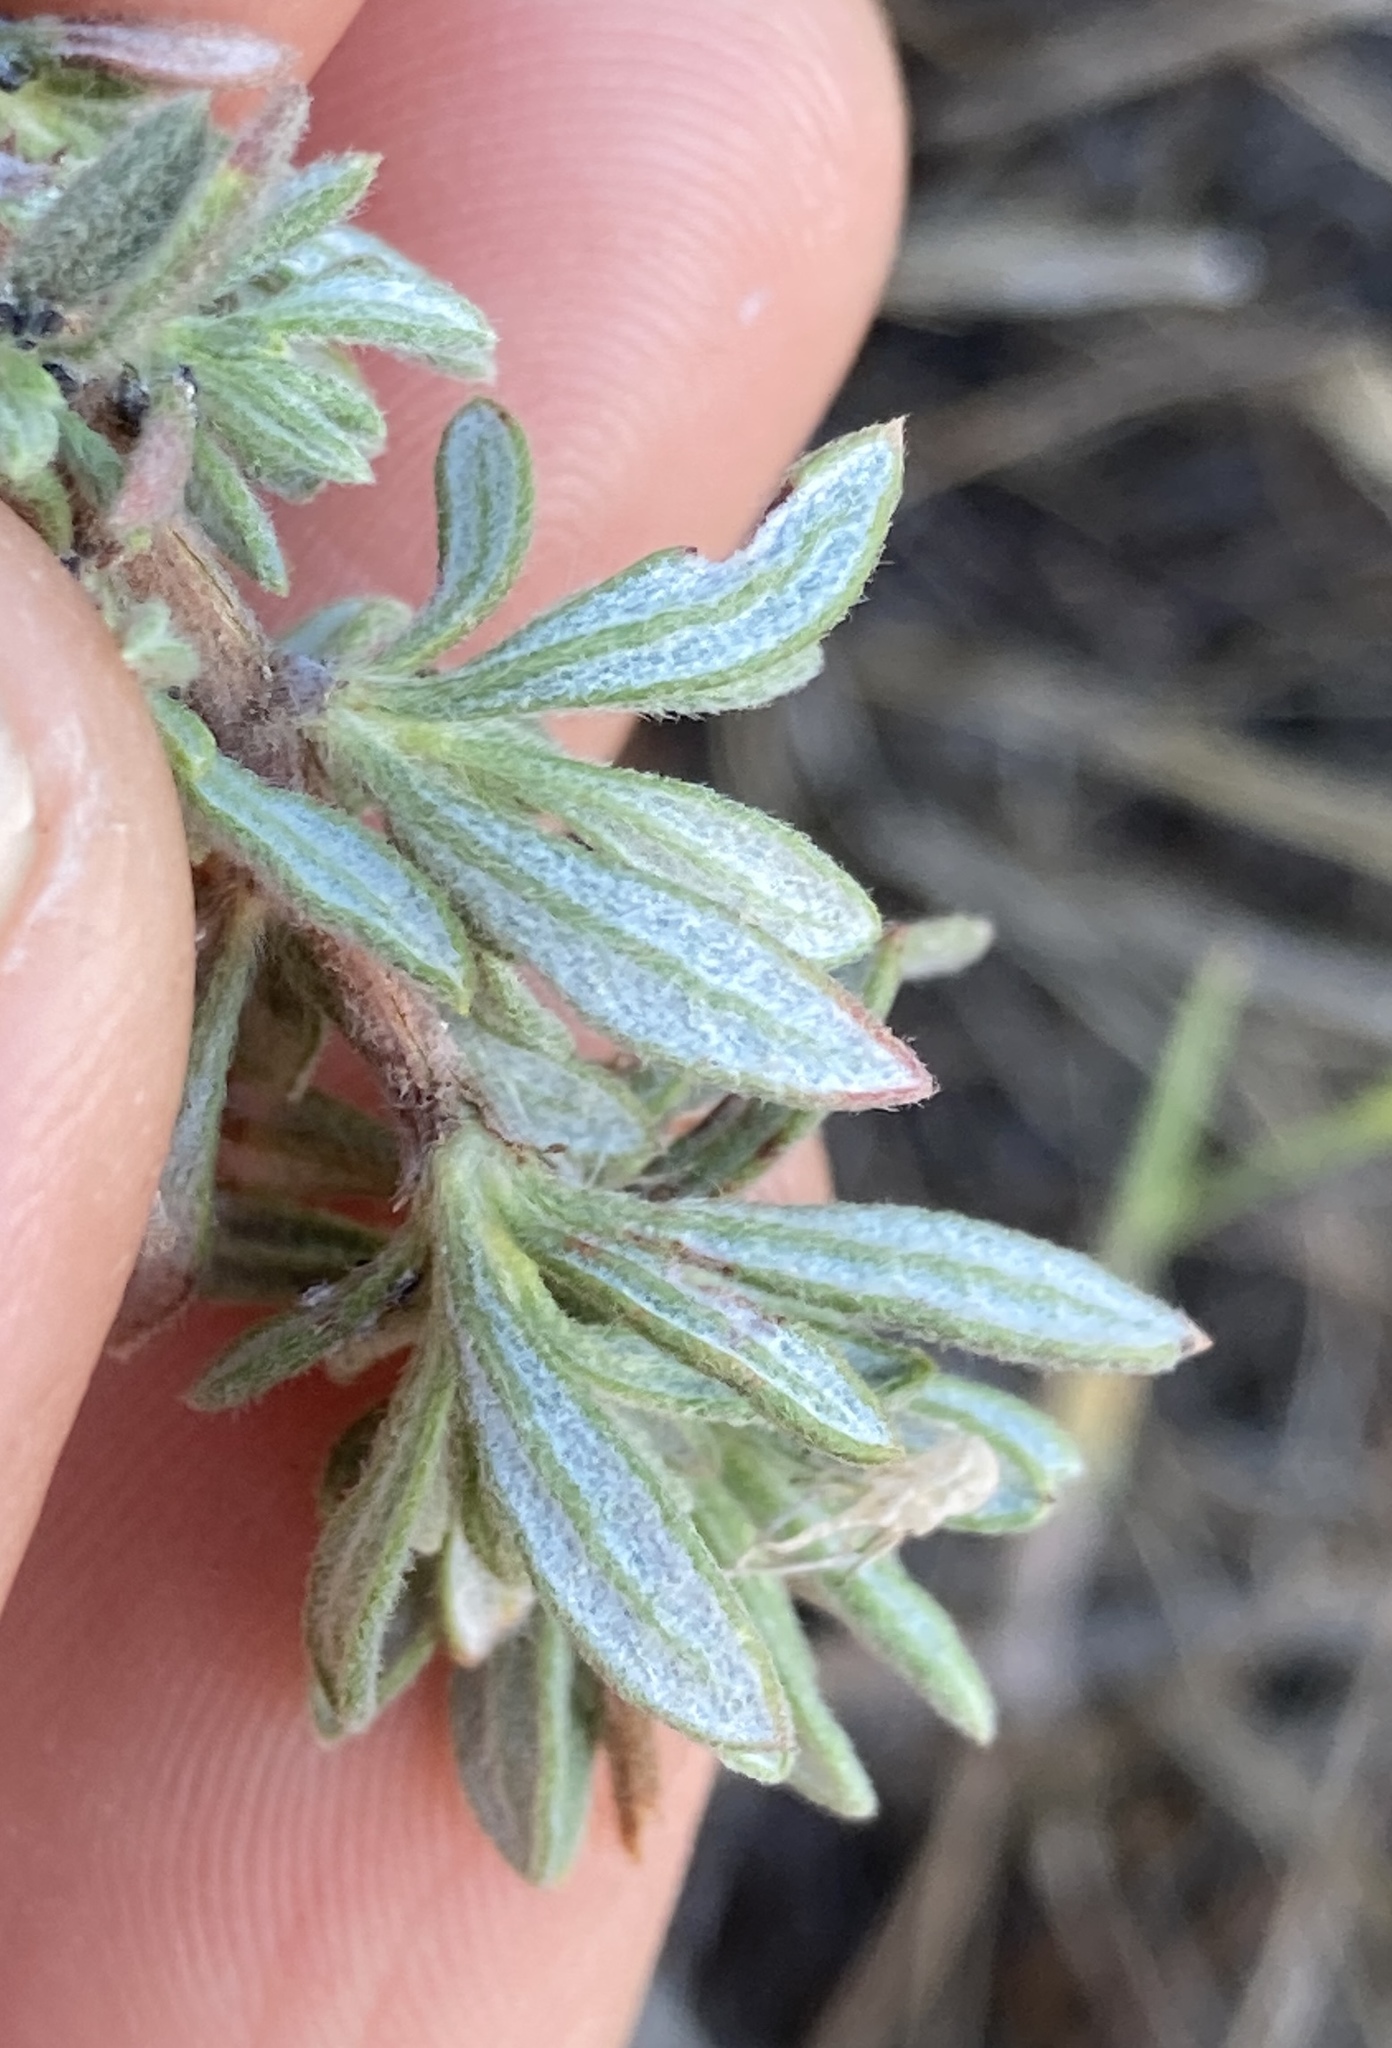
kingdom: Plantae
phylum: Tracheophyta
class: Magnoliopsida
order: Caryophyllales
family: Polygonaceae
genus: Eriogonum
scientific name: Eriogonum fasciculatum
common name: California wild buckwheat
